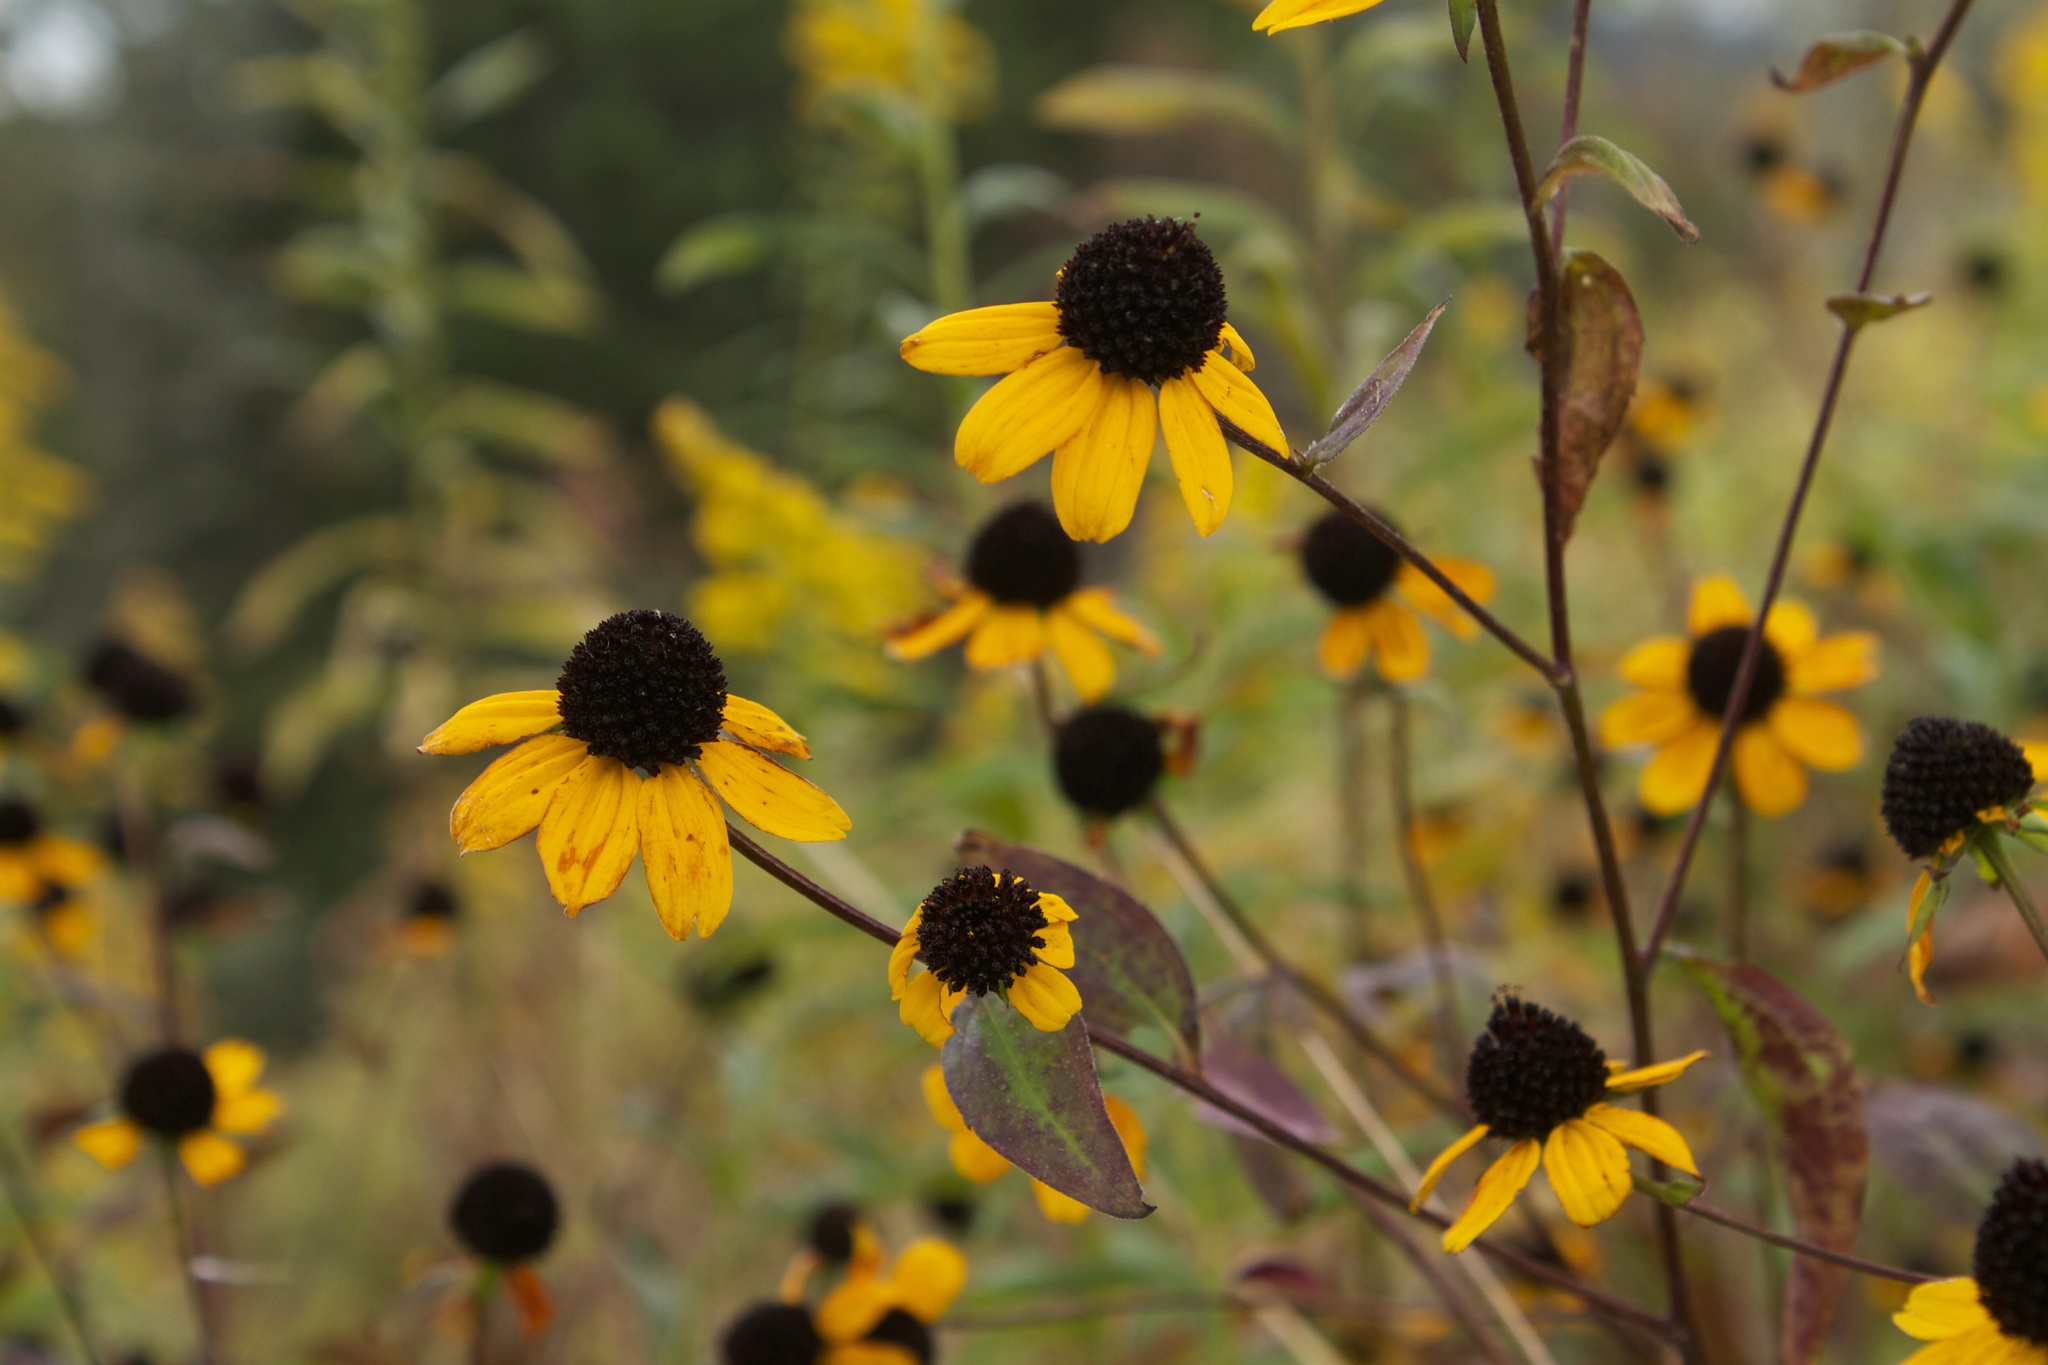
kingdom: Plantae
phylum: Tracheophyta
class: Magnoliopsida
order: Asterales
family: Asteraceae
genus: Rudbeckia
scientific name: Rudbeckia triloba
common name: Thin-leaved coneflower
